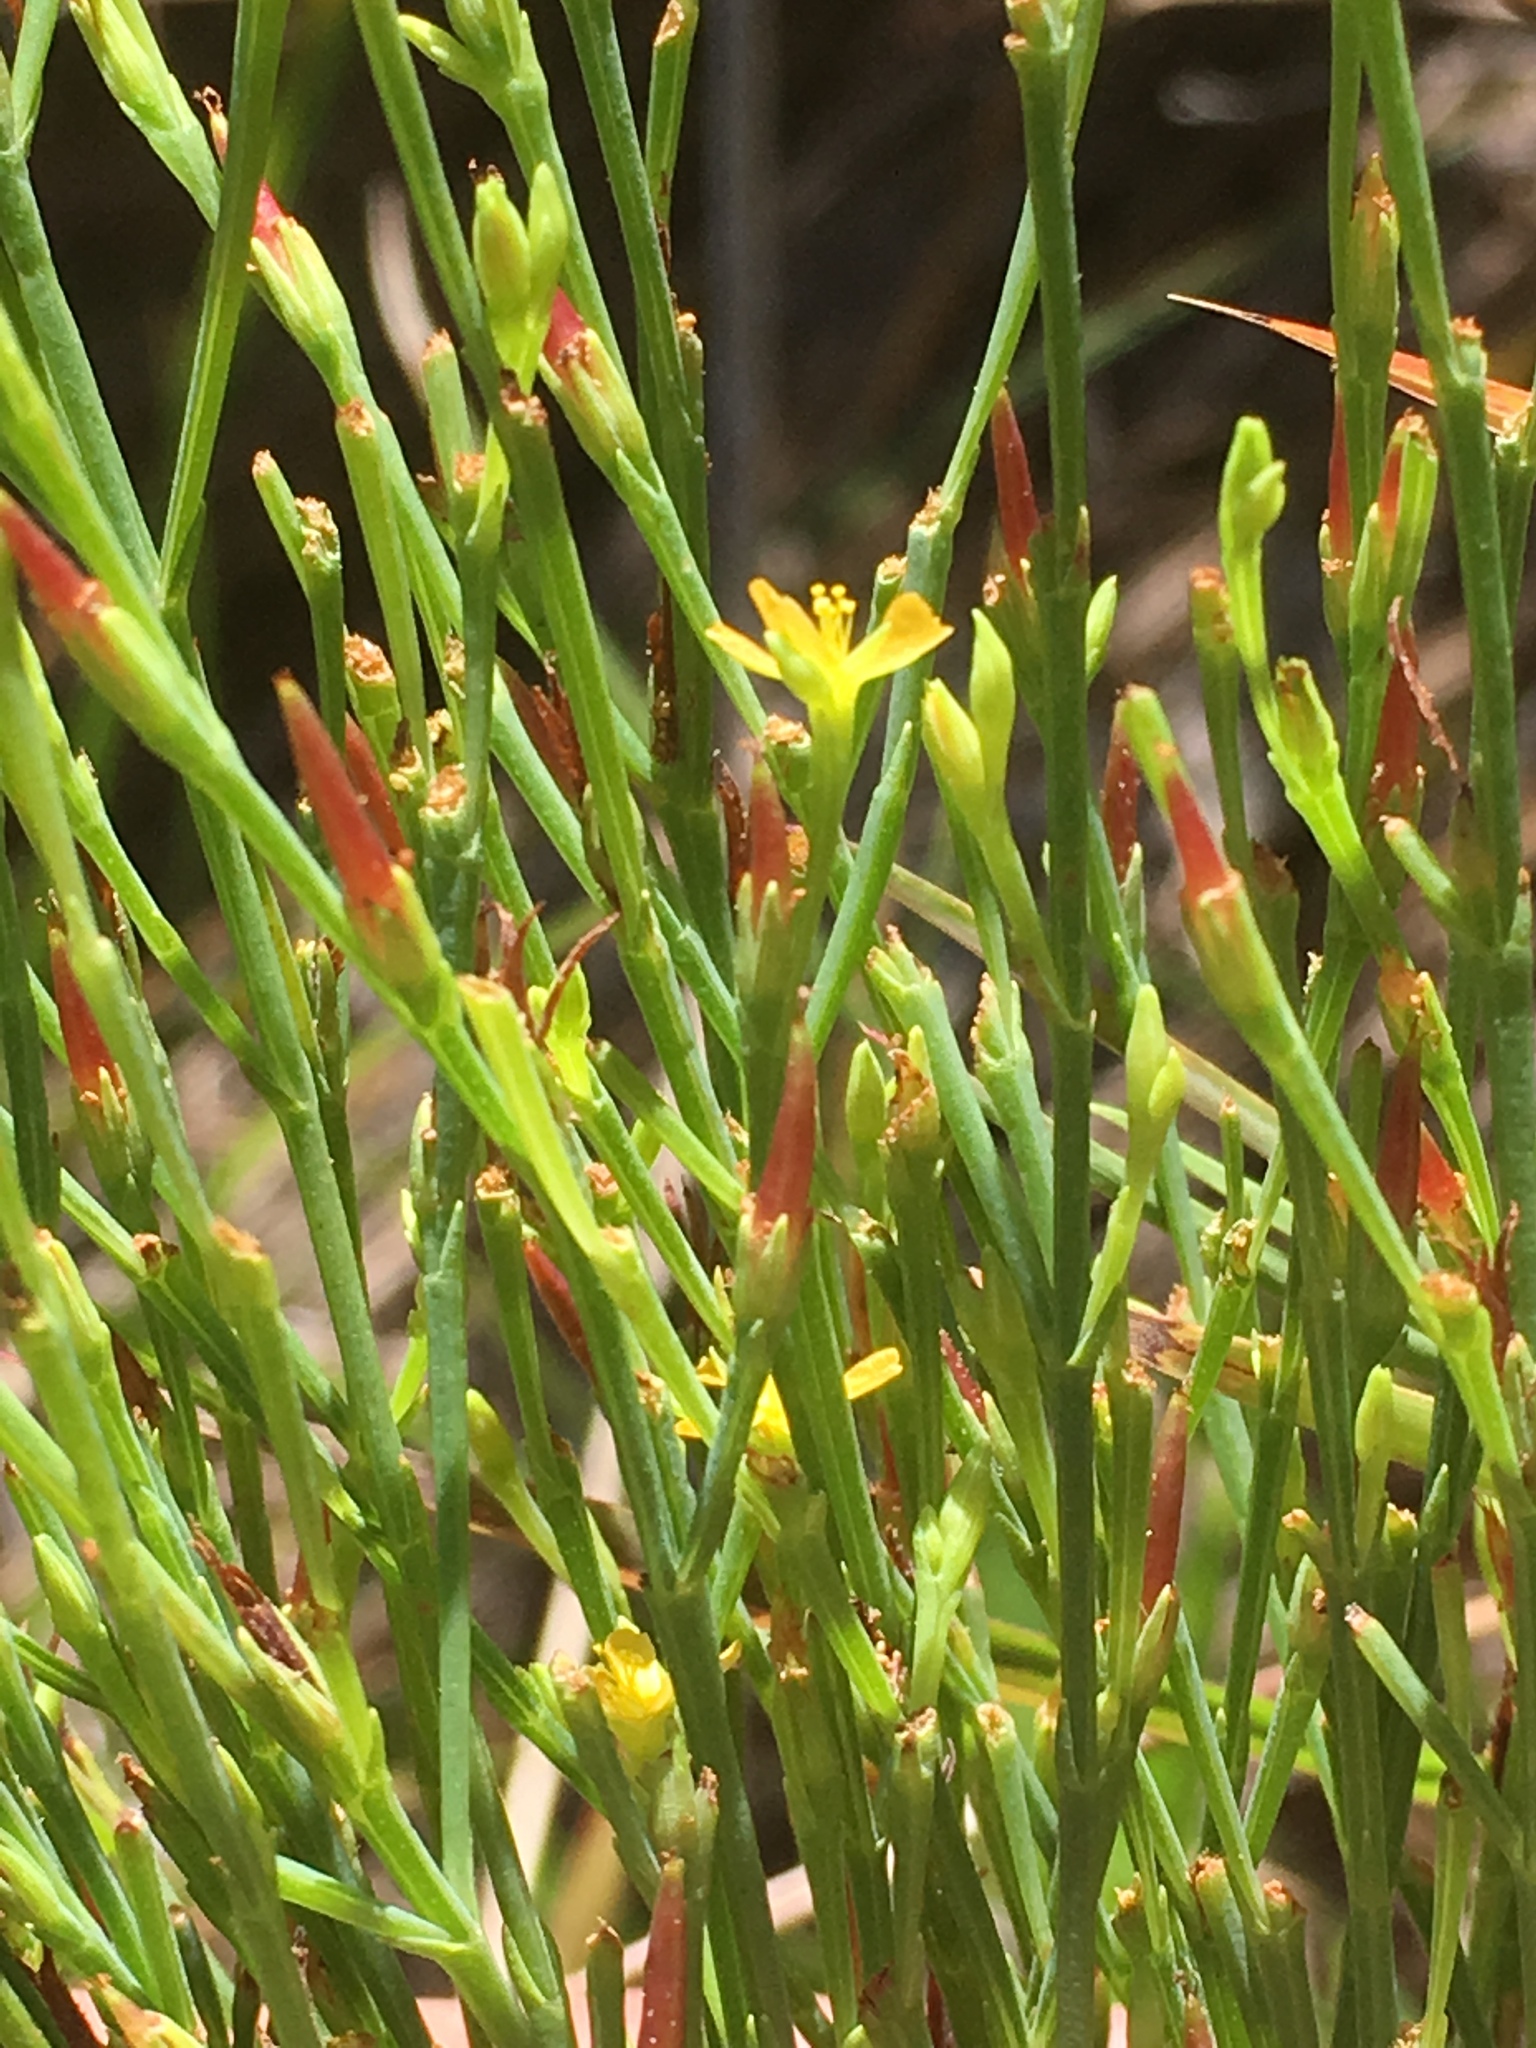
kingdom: Plantae
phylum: Tracheophyta
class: Magnoliopsida
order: Malpighiales
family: Hypericaceae
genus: Hypericum
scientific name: Hypericum gentianoides
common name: Gentian-leaved st. john's-wort
